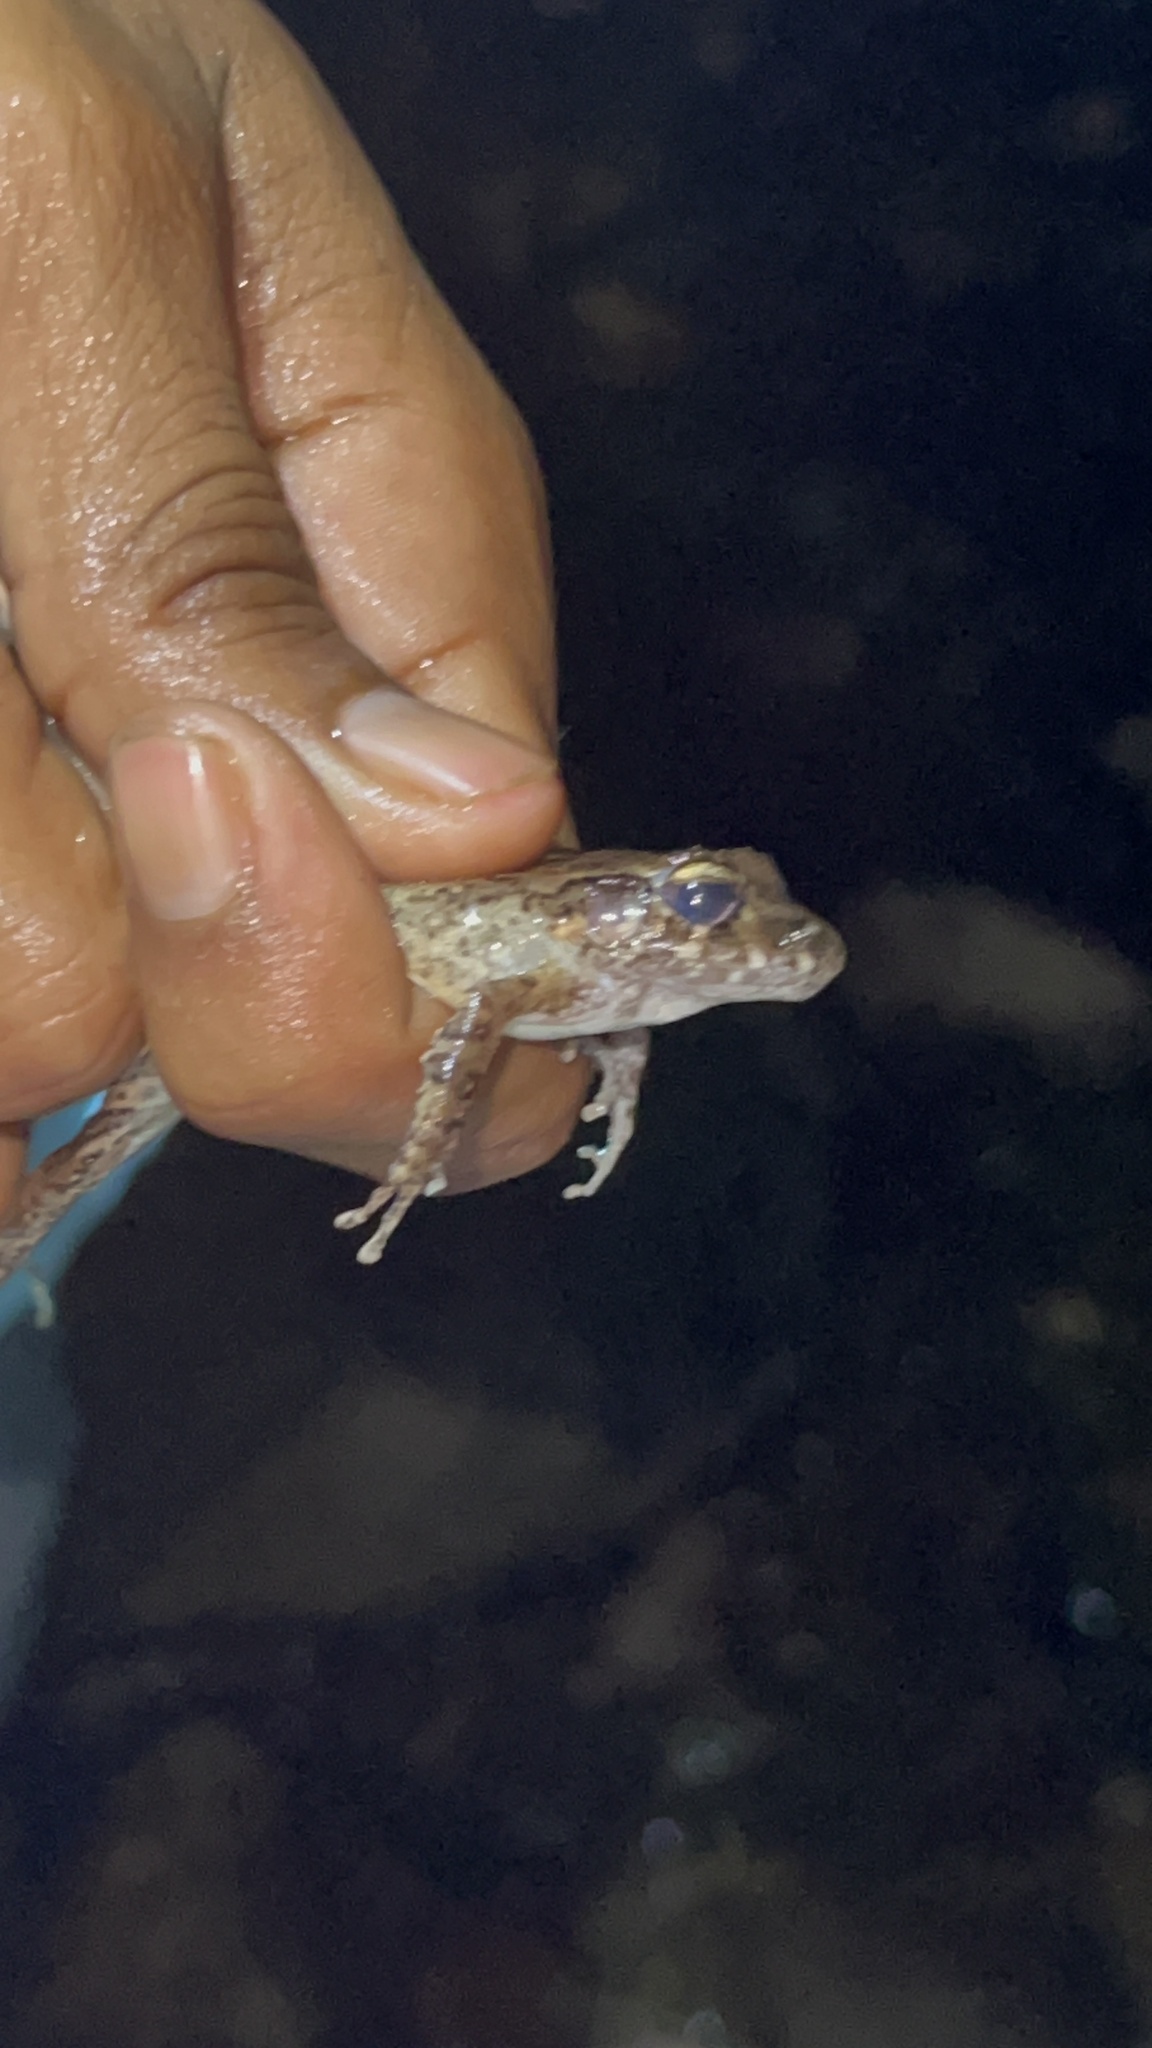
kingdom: Animalia
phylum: Chordata
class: Amphibia
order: Anura
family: Craugastoridae
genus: Craugastor
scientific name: Craugastor sabrinus
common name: Long-legged streamfrog
